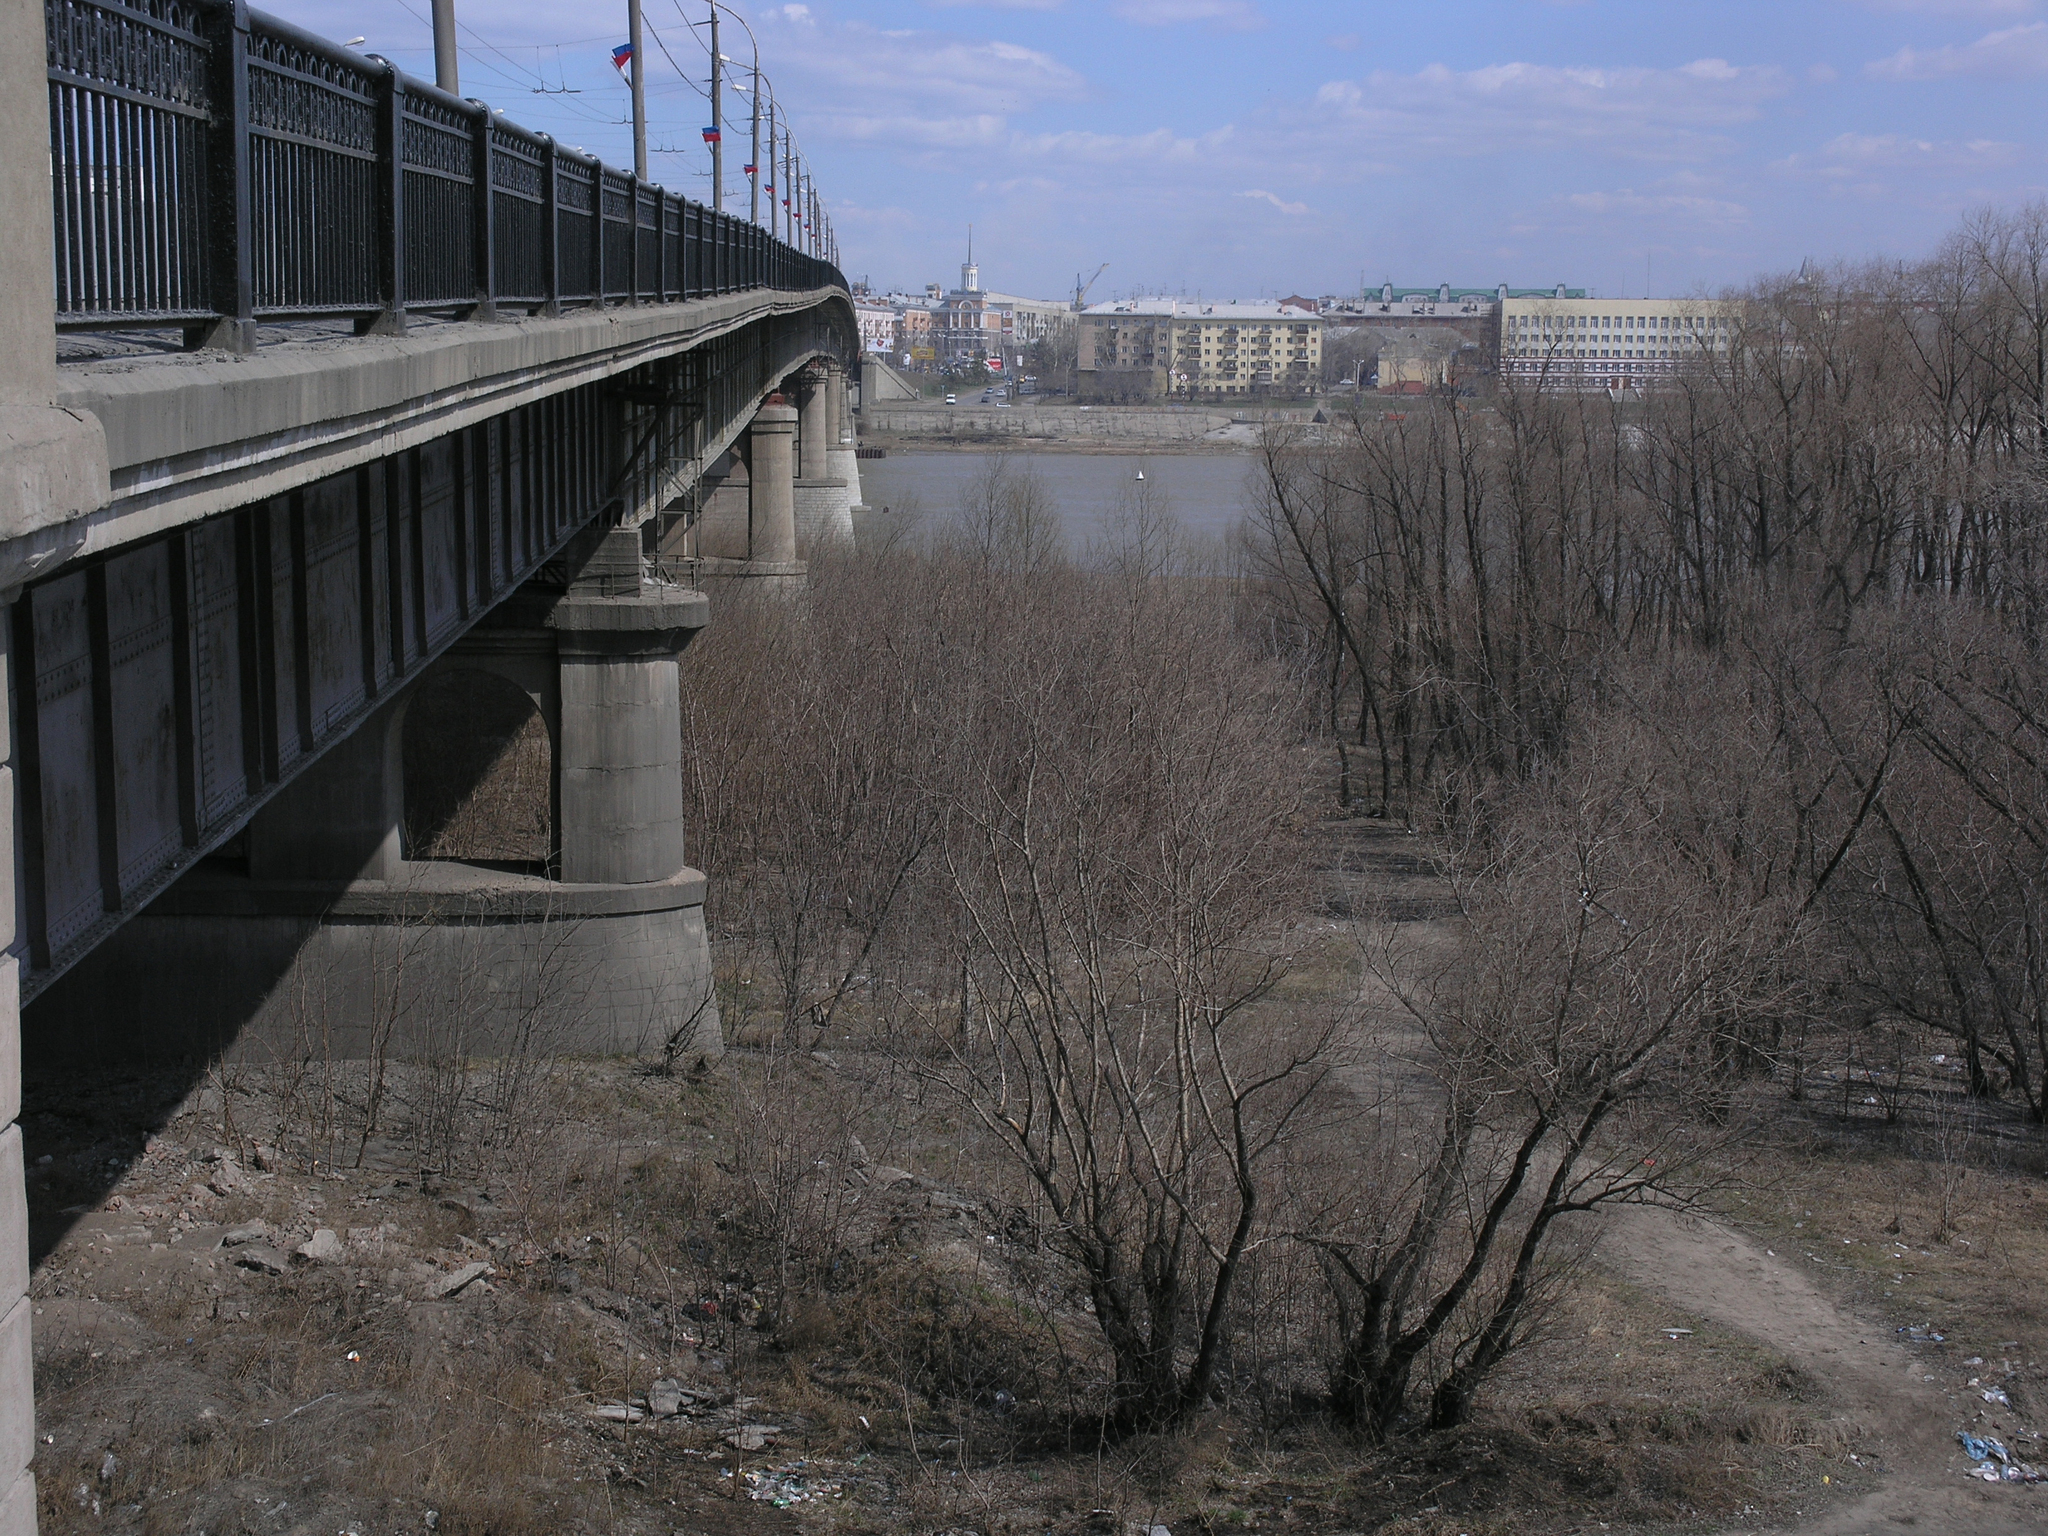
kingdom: Plantae
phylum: Tracheophyta
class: Magnoliopsida
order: Malpighiales
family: Salicaceae
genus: Salix
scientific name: Salix alba
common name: White willow
